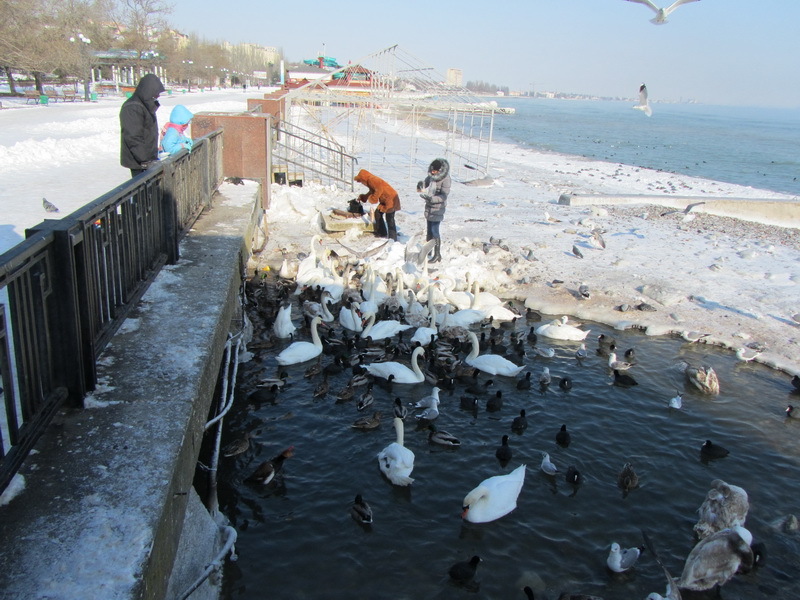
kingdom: Animalia
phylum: Chordata
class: Aves
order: Anseriformes
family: Anatidae
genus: Cygnus
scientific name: Cygnus olor
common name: Mute swan
